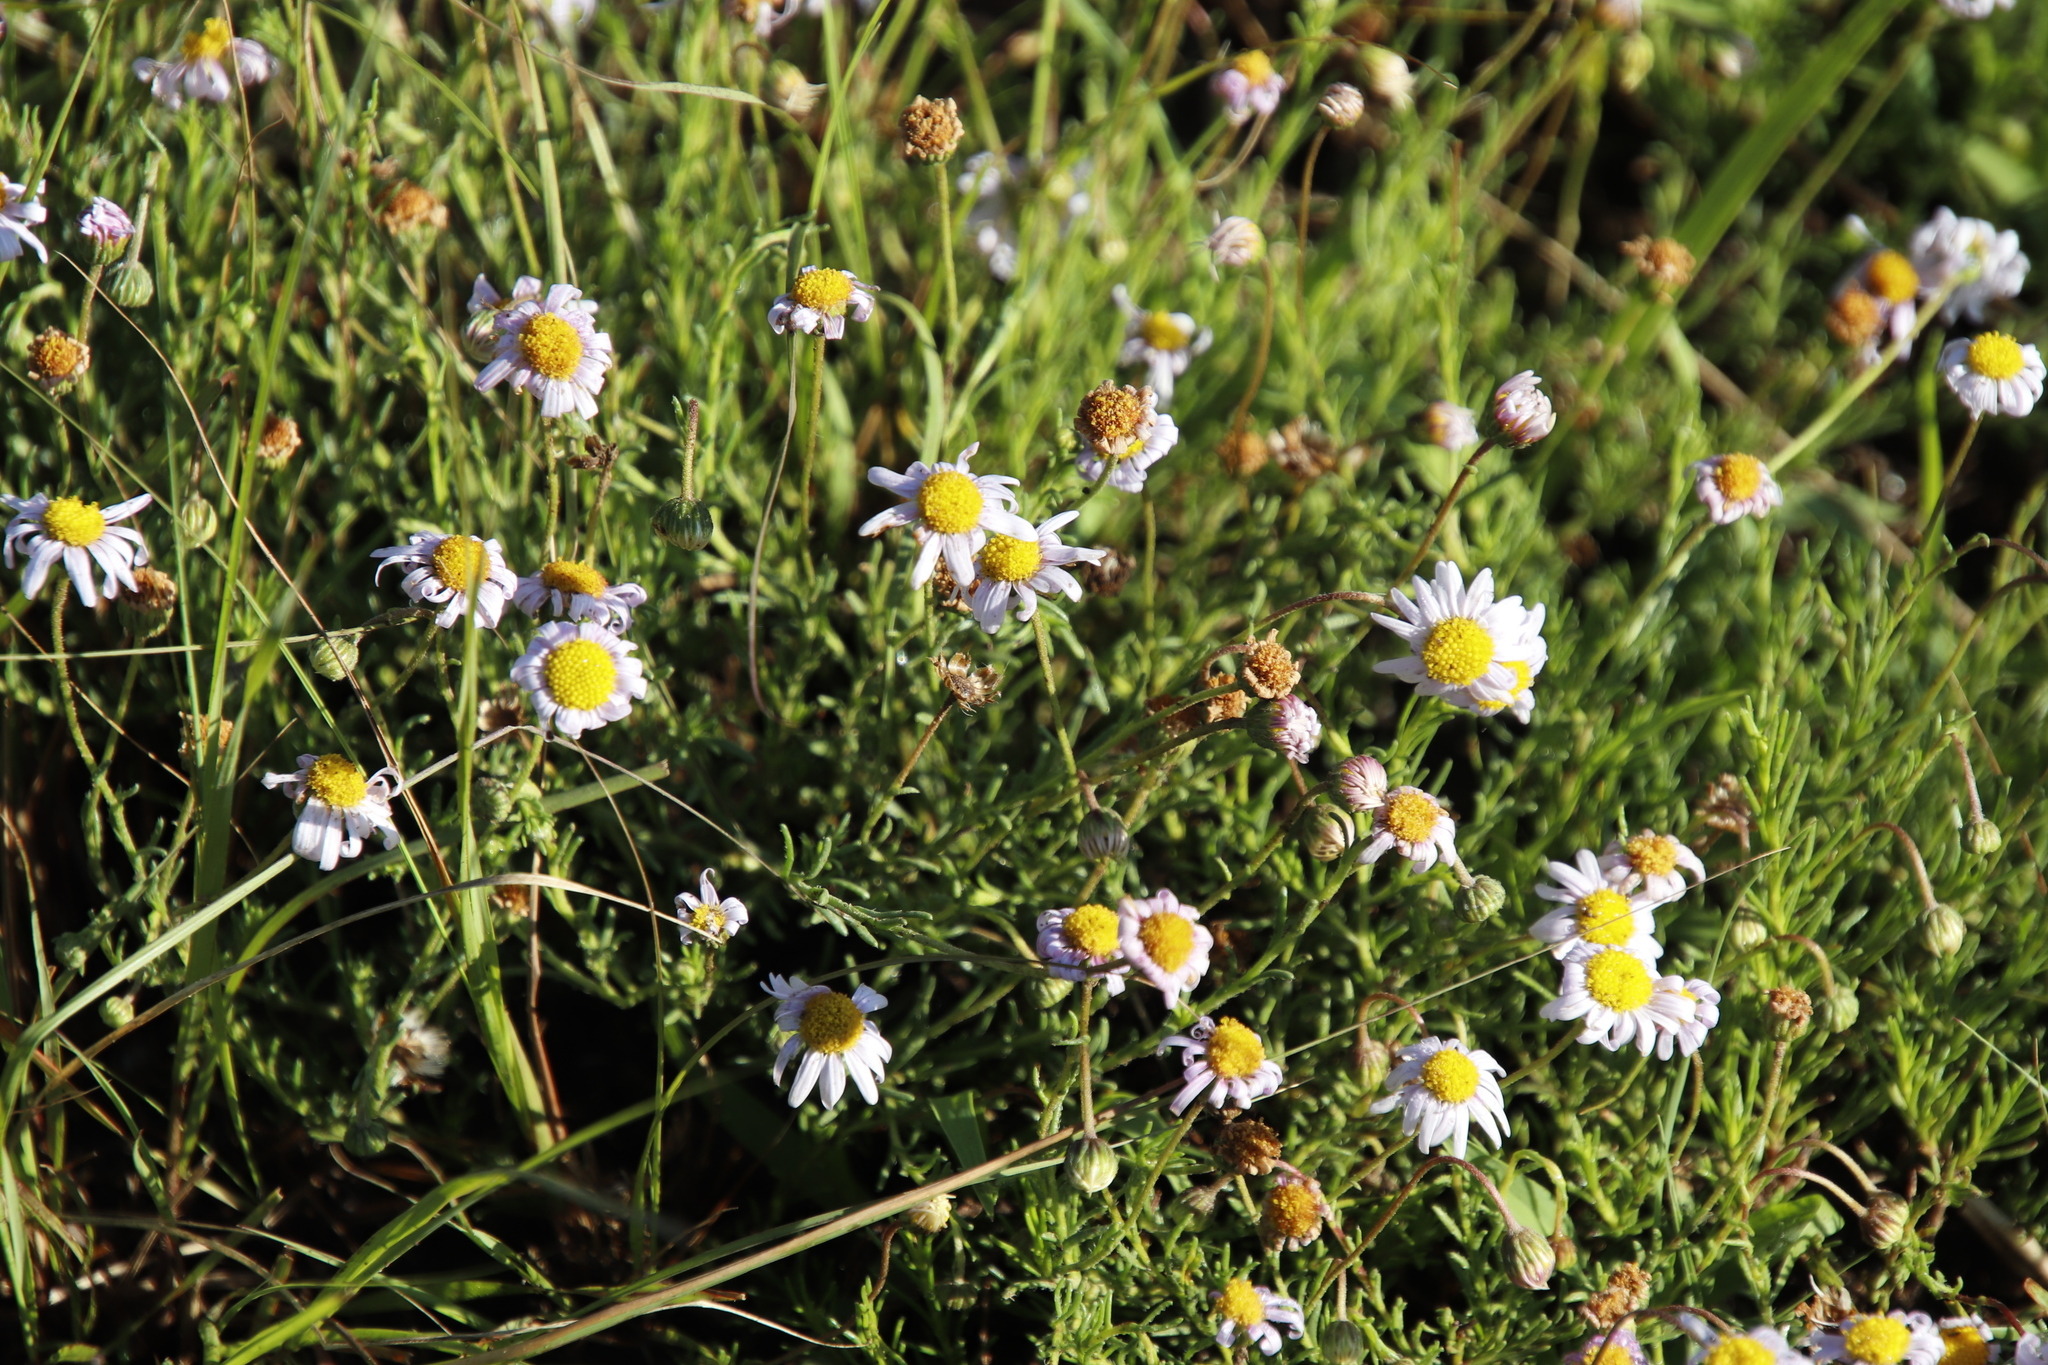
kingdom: Plantae
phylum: Tracheophyta
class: Magnoliopsida
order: Asterales
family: Asteraceae
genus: Felicia
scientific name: Felicia caespitosa
